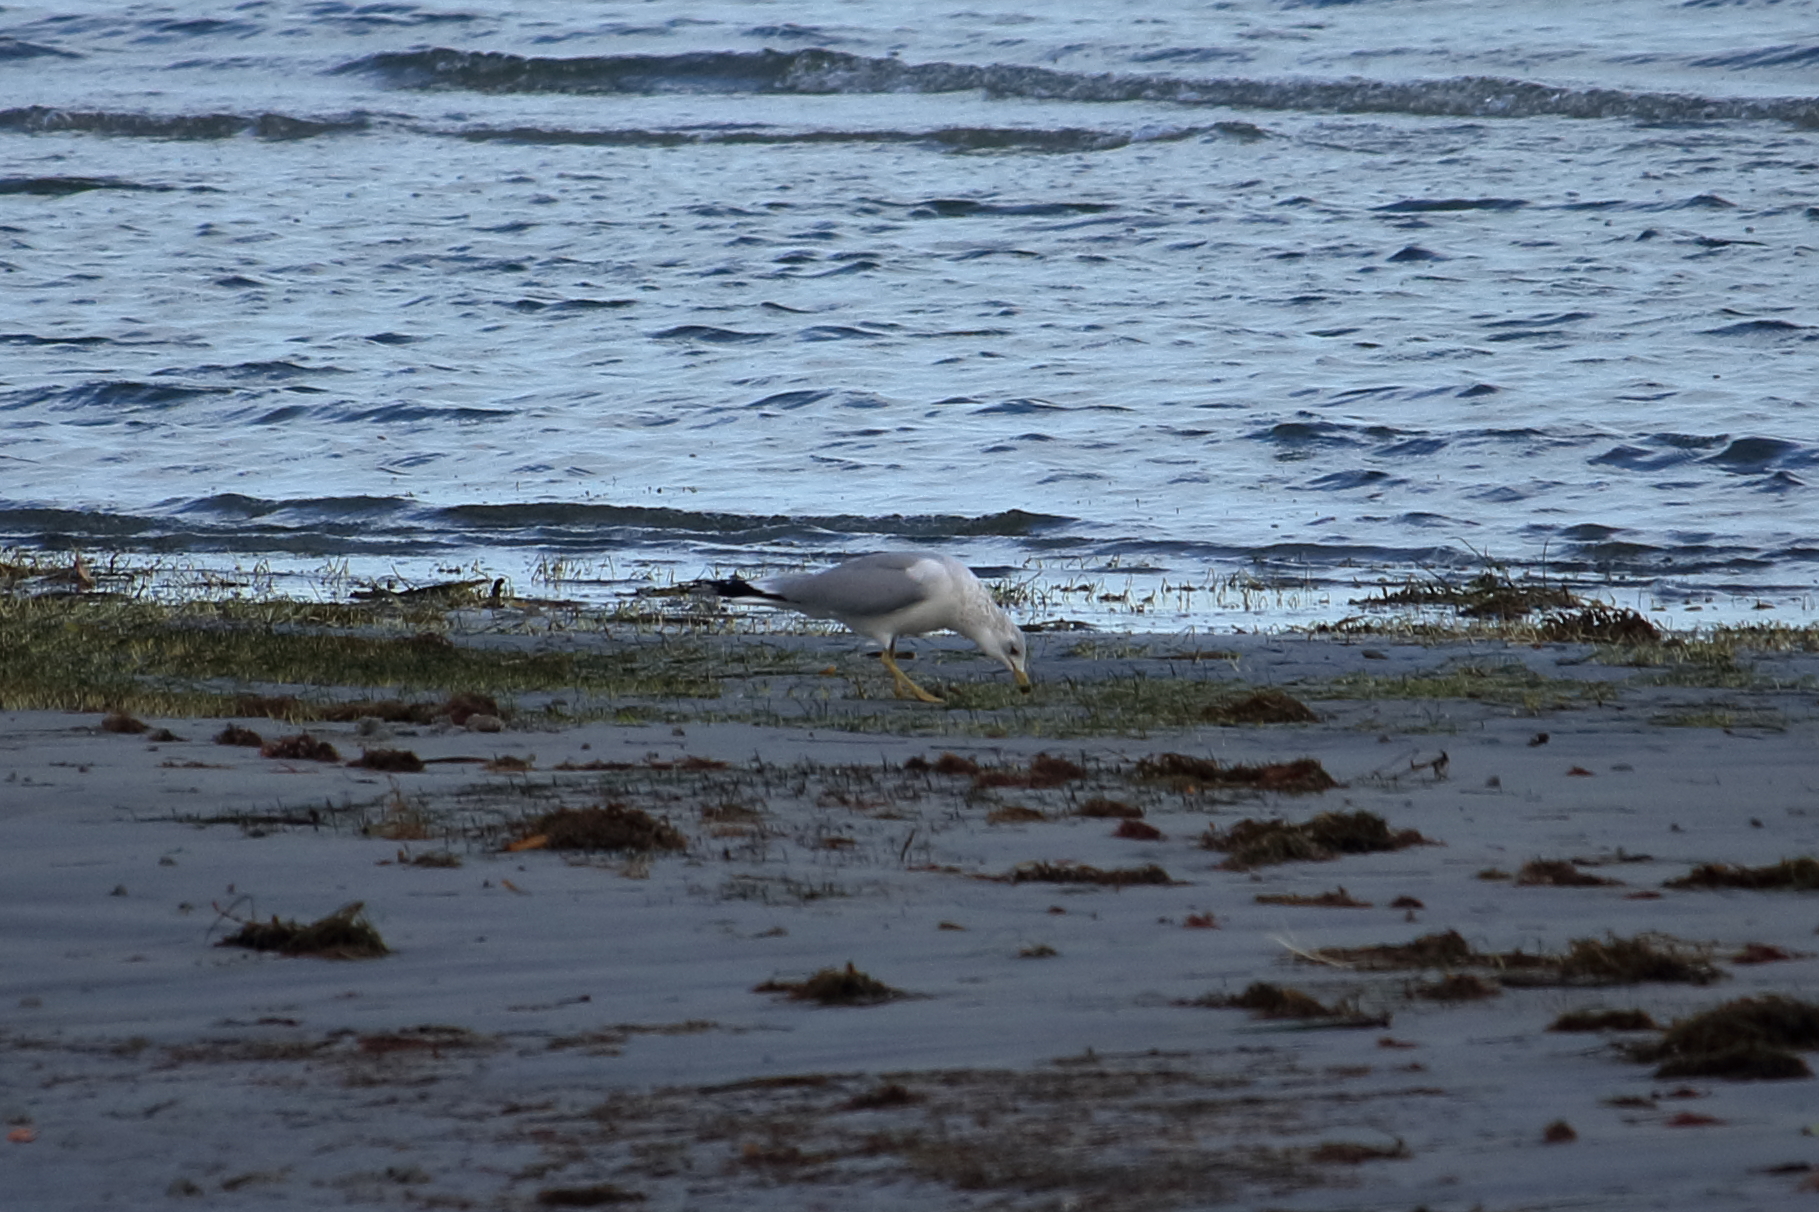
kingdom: Animalia
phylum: Chordata
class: Aves
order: Charadriiformes
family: Laridae
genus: Larus
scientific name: Larus delawarensis
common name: Ring-billed gull
